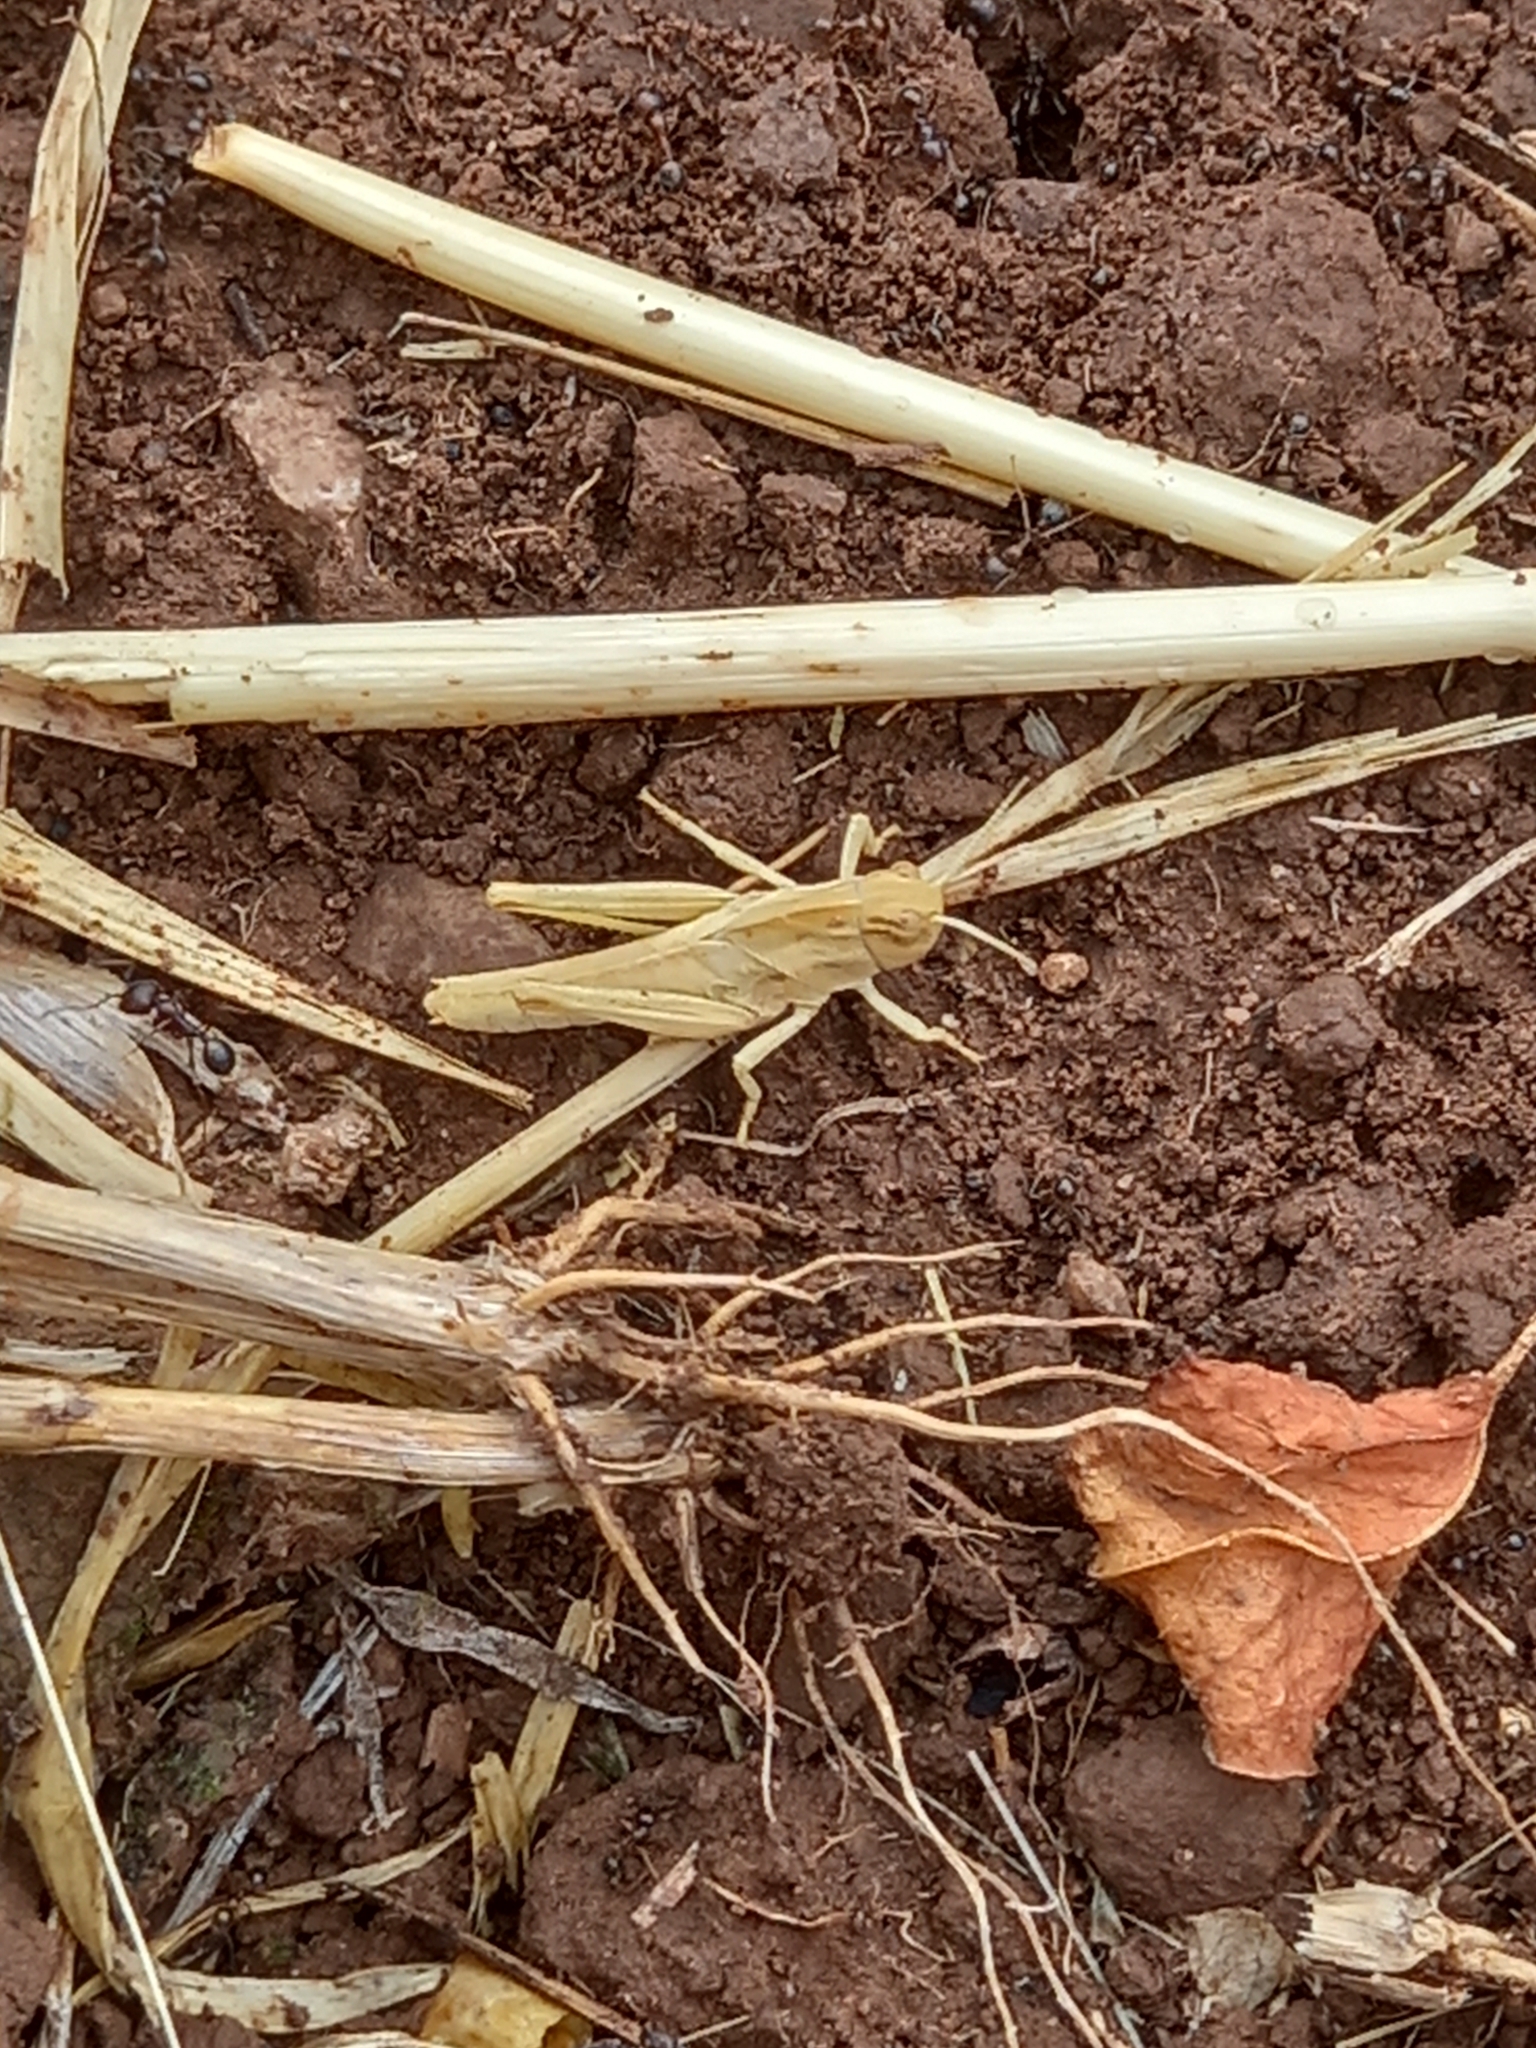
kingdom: Animalia
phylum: Arthropoda
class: Insecta
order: Orthoptera
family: Acrididae
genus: Locusta
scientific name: Locusta migratoria
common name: Migratory locust
